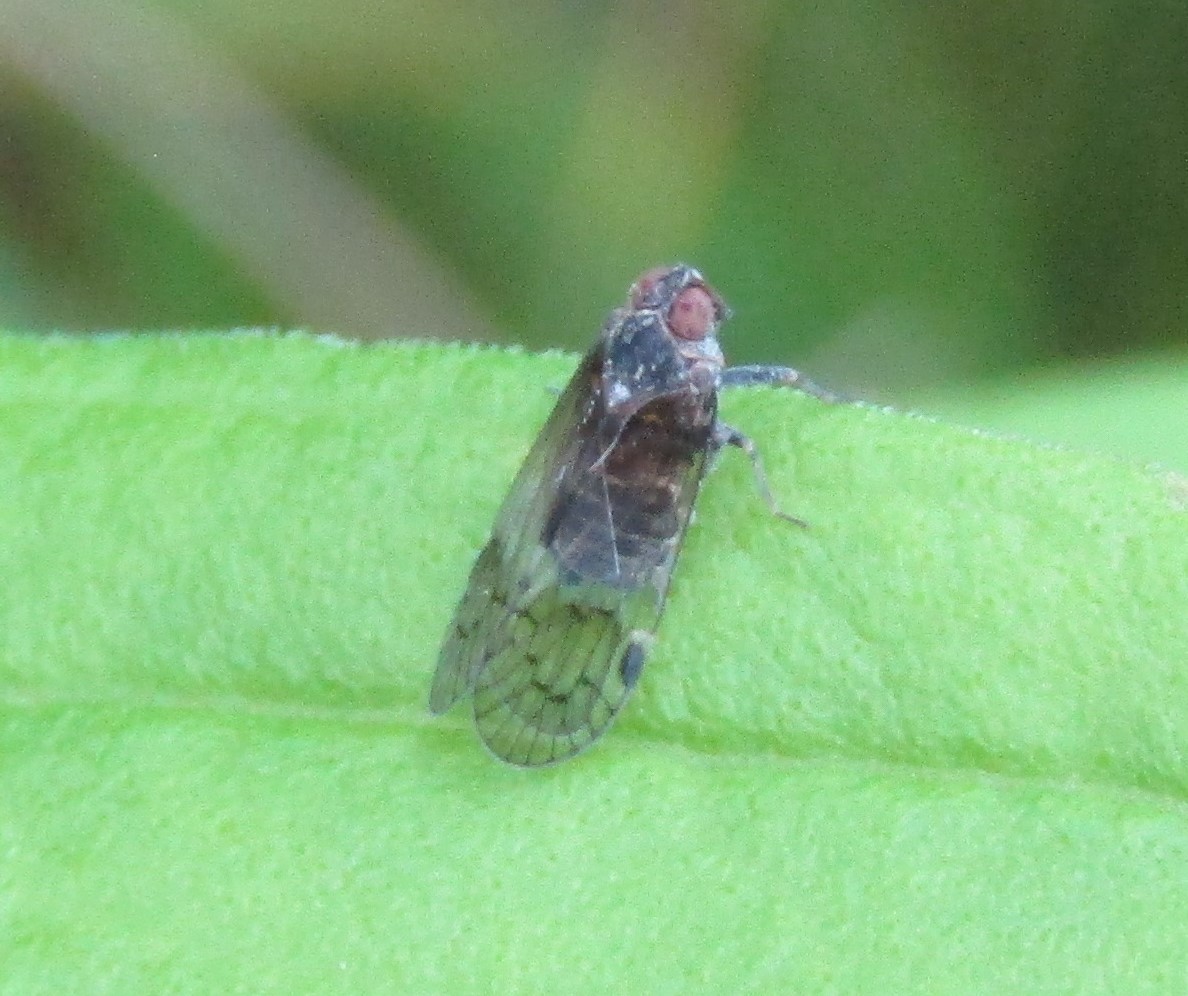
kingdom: Animalia
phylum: Arthropoda
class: Insecta
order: Hemiptera
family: Cixiidae
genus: Melanoliarus
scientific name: Melanoliarus humilis
